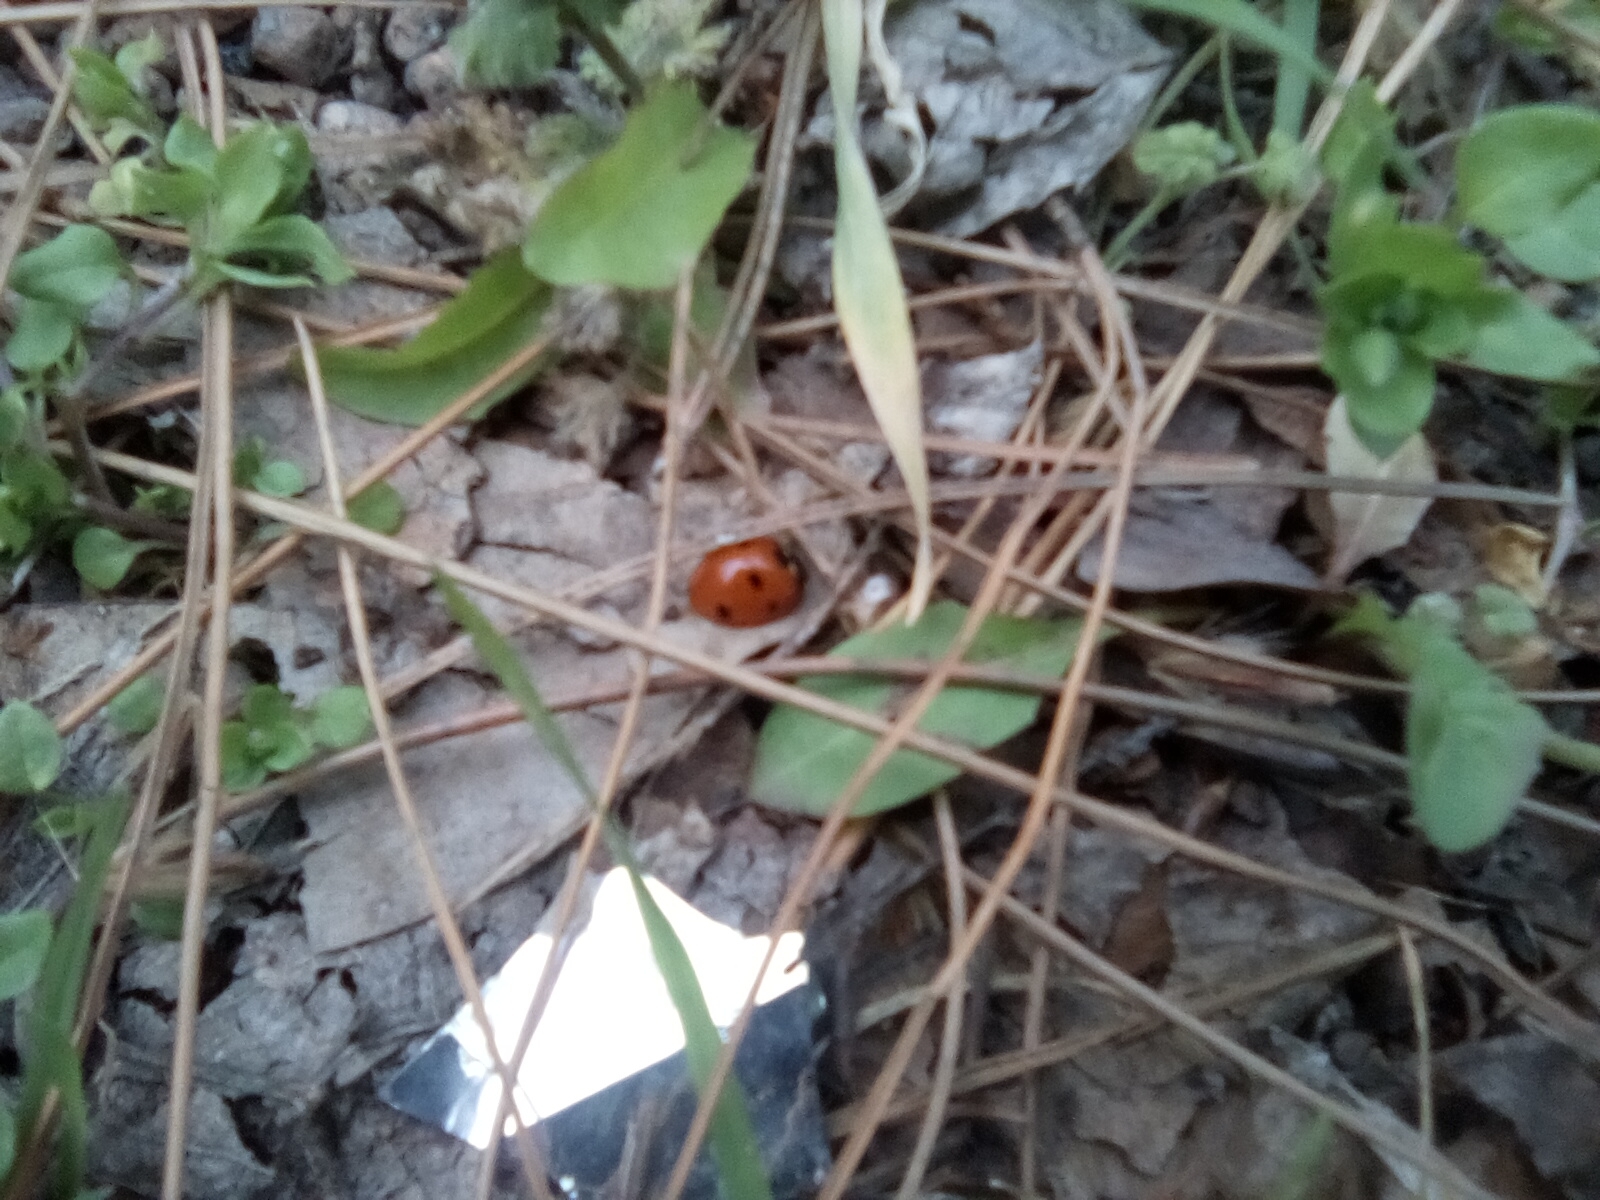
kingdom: Animalia
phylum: Arthropoda
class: Insecta
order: Coleoptera
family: Coccinellidae
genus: Coccinella
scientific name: Coccinella septempunctata
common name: Sevenspotted lady beetle
